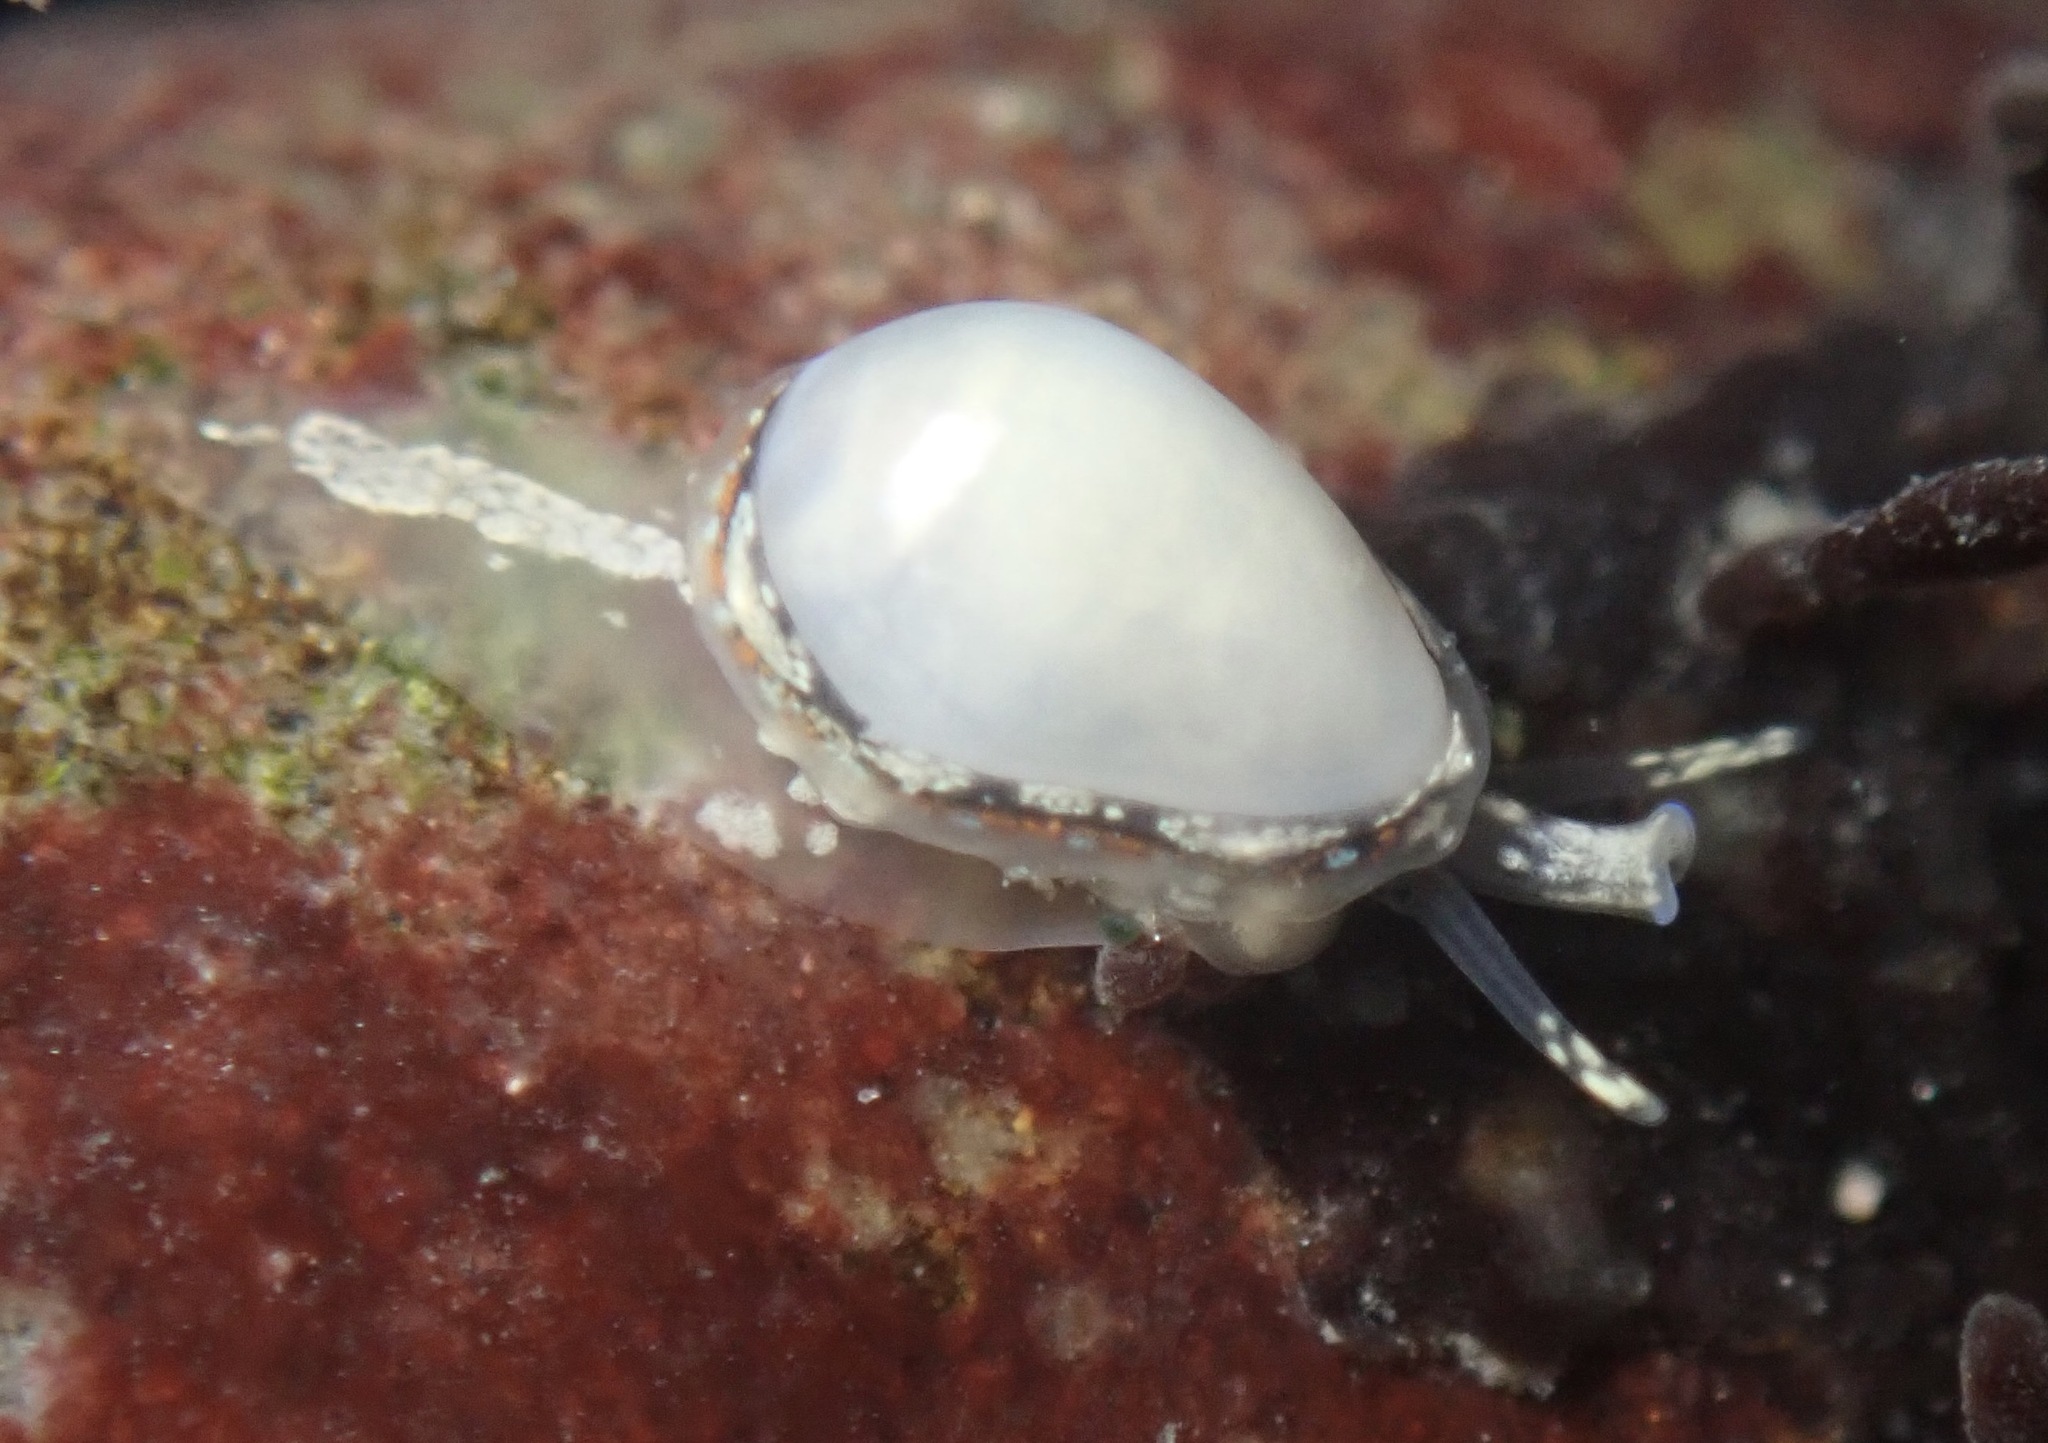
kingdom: Animalia
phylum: Mollusca
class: Gastropoda
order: Neogastropoda
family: Granulinidae
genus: Granulina
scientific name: Granulina margaritula
